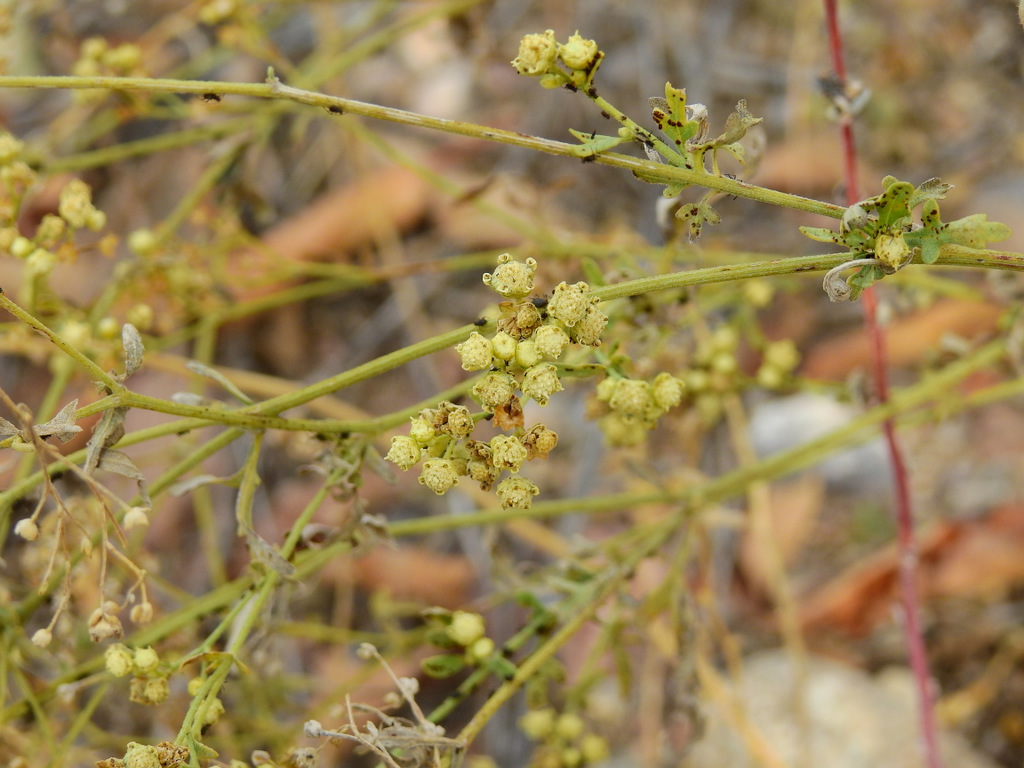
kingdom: Plantae
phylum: Tracheophyta
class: Magnoliopsida
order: Asterales
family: Asteraceae
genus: Parthenium
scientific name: Parthenium hysterophorus
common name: Santa maria feverfew
